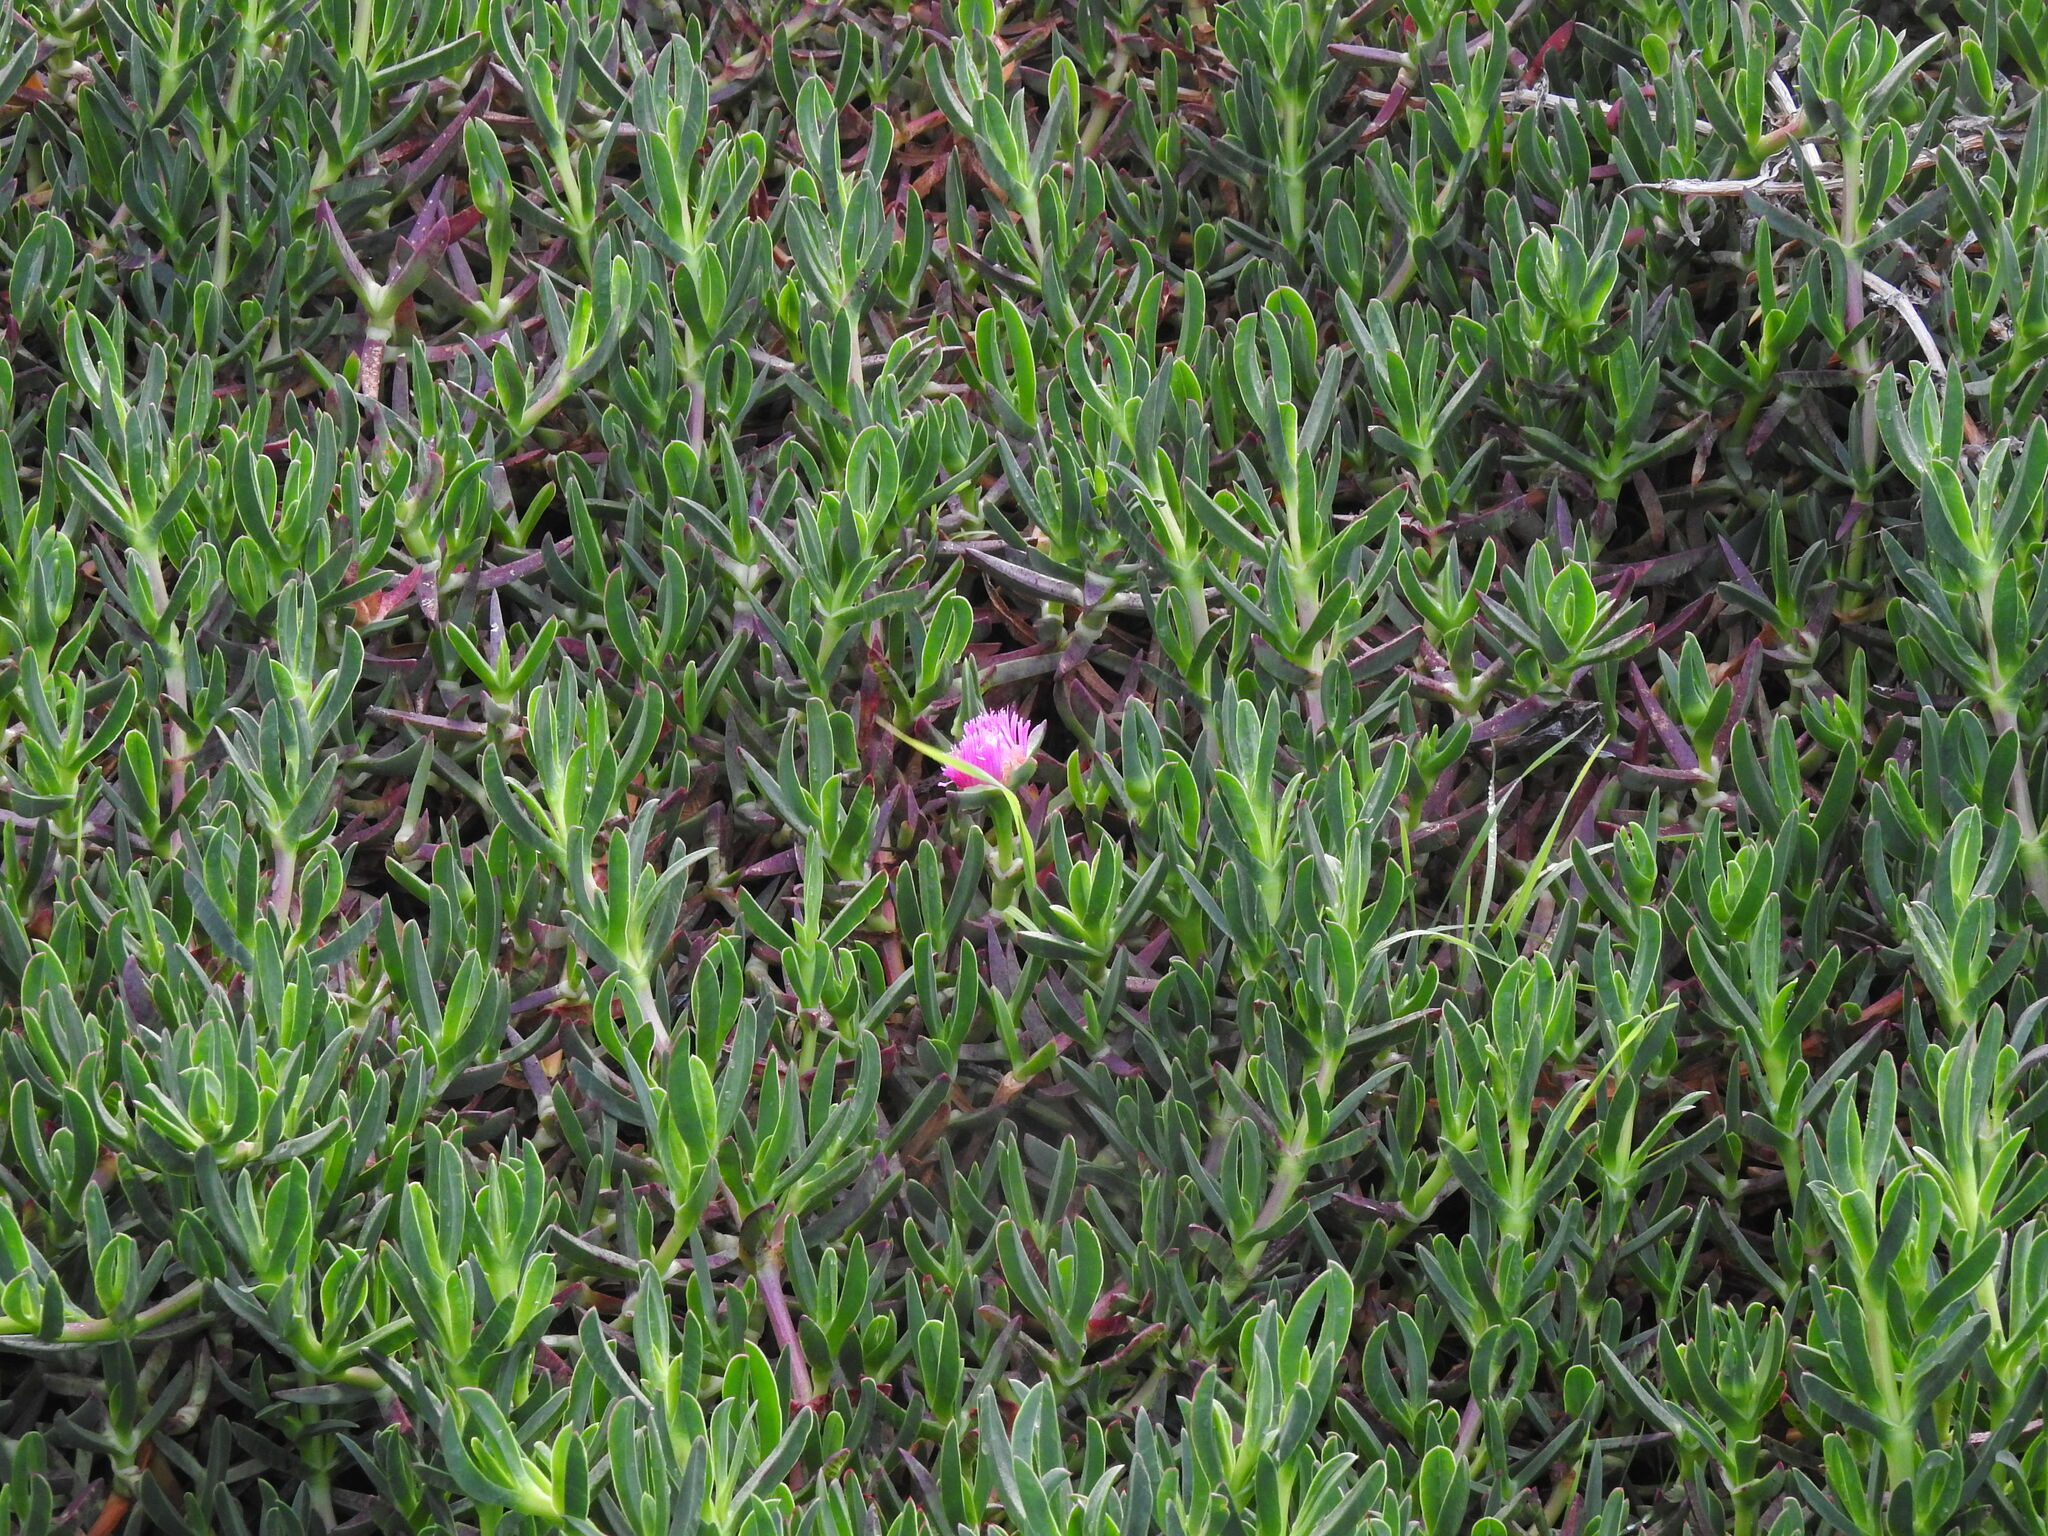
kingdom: Plantae
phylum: Tracheophyta
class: Magnoliopsida
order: Caryophyllales
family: Aizoaceae
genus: Carpobrotus
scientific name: Carpobrotus acinaciformis
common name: Sally-my-handsome
